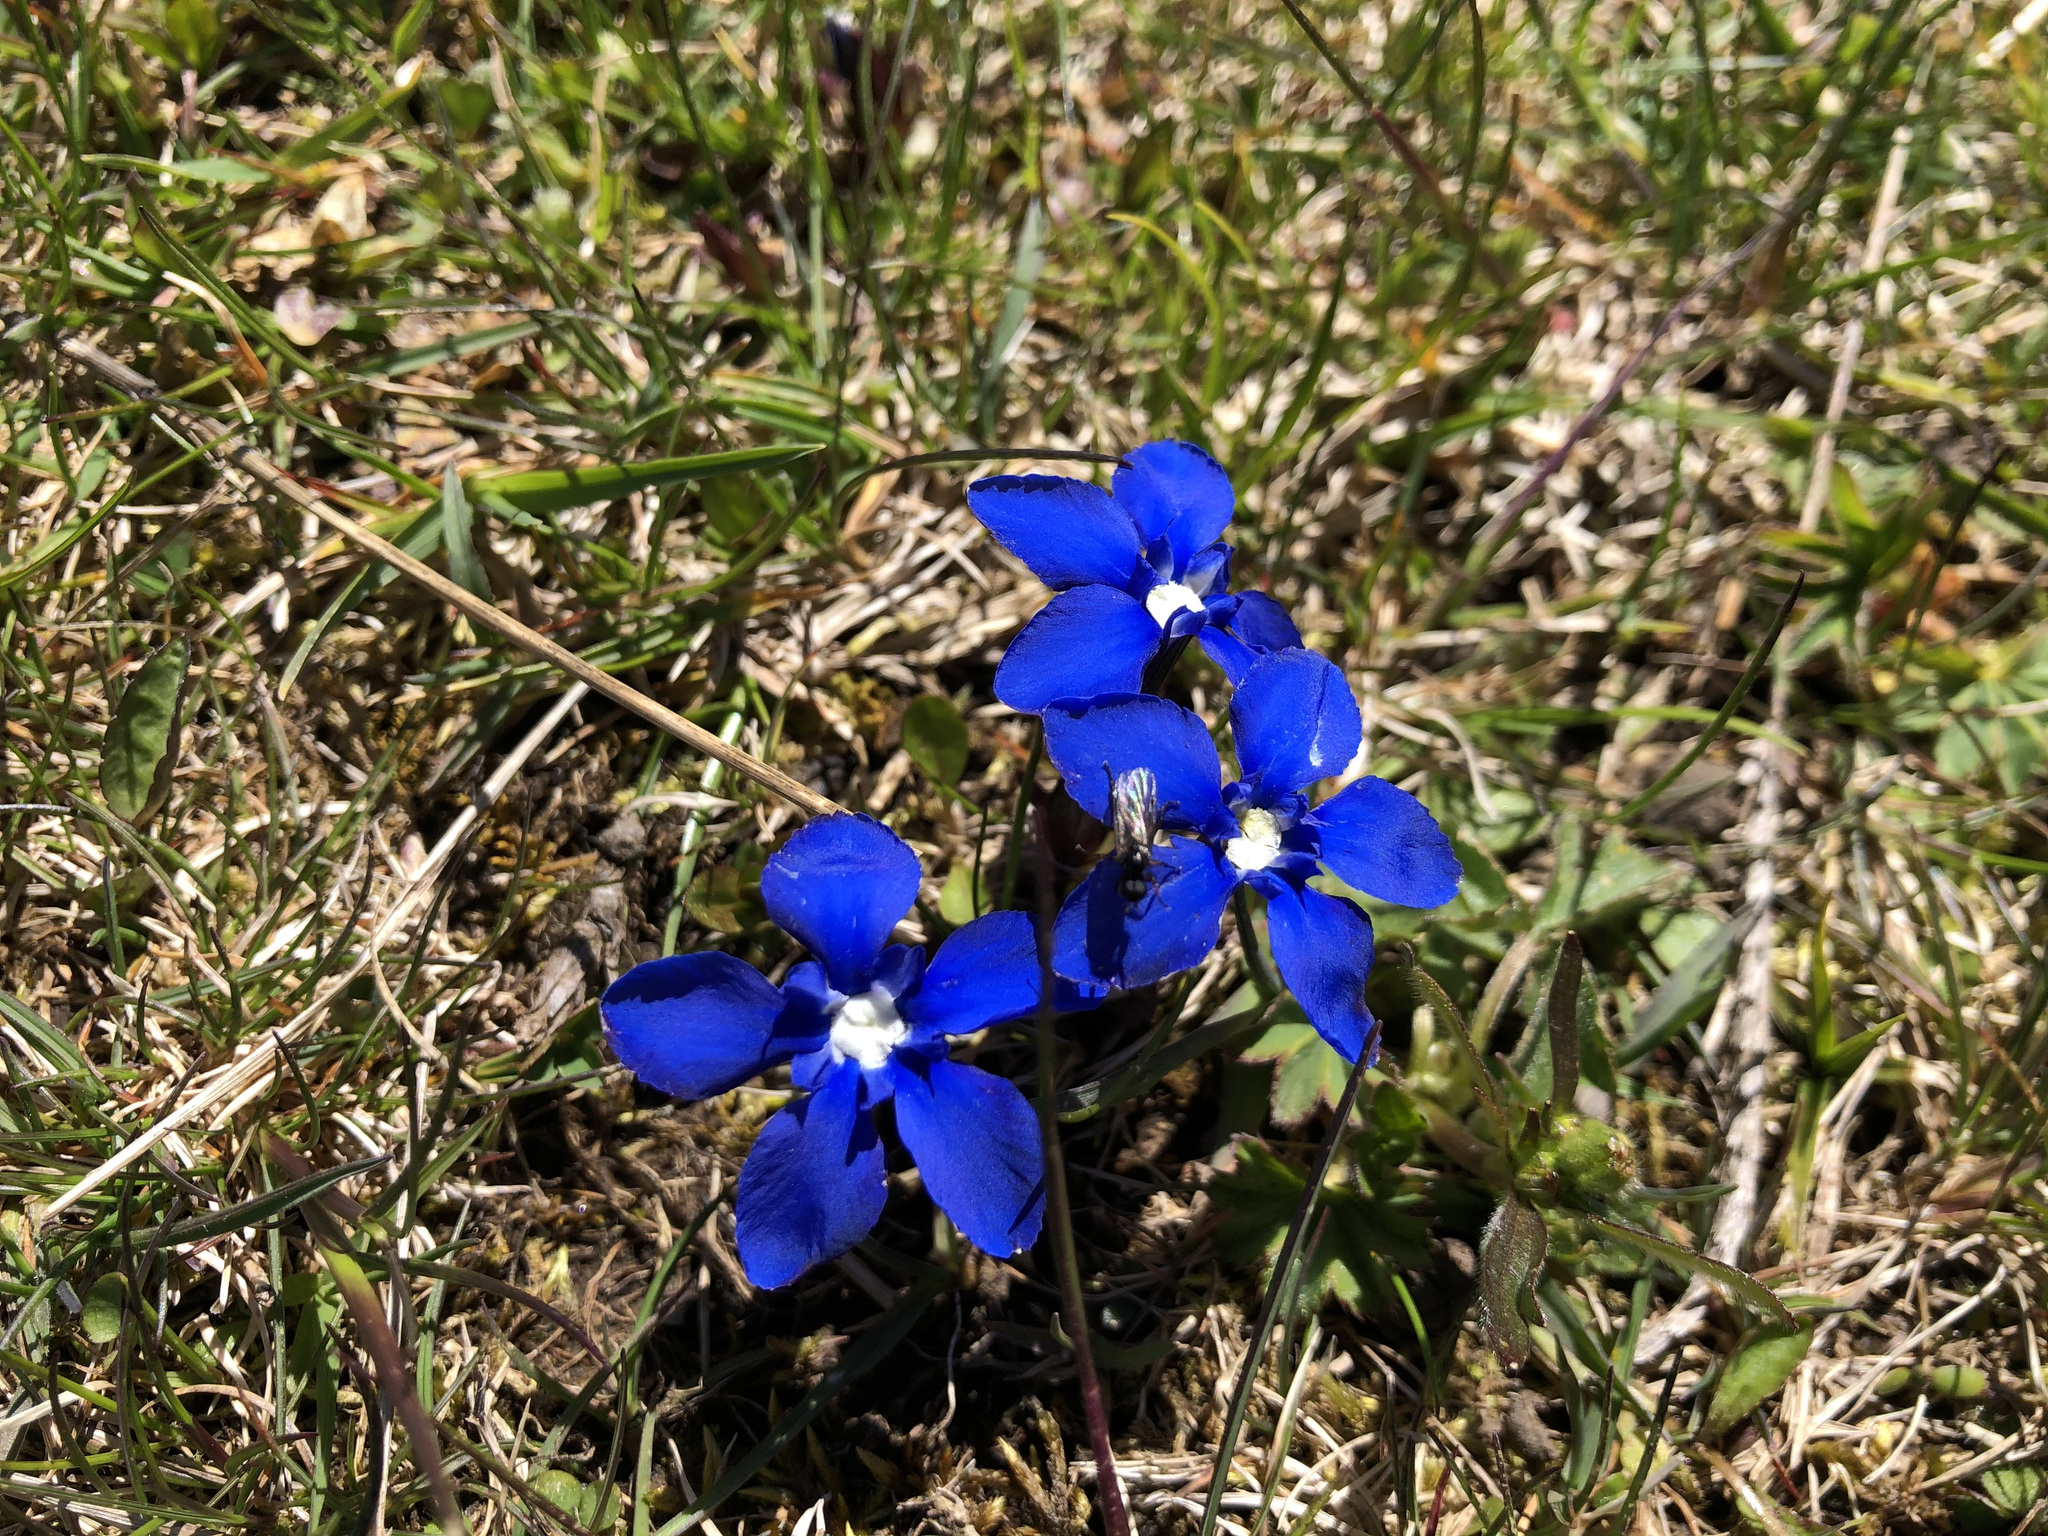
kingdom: Plantae
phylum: Tracheophyta
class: Magnoliopsida
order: Gentianales
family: Gentianaceae
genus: Gentiana
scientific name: Gentiana verna
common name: Spring gentian
